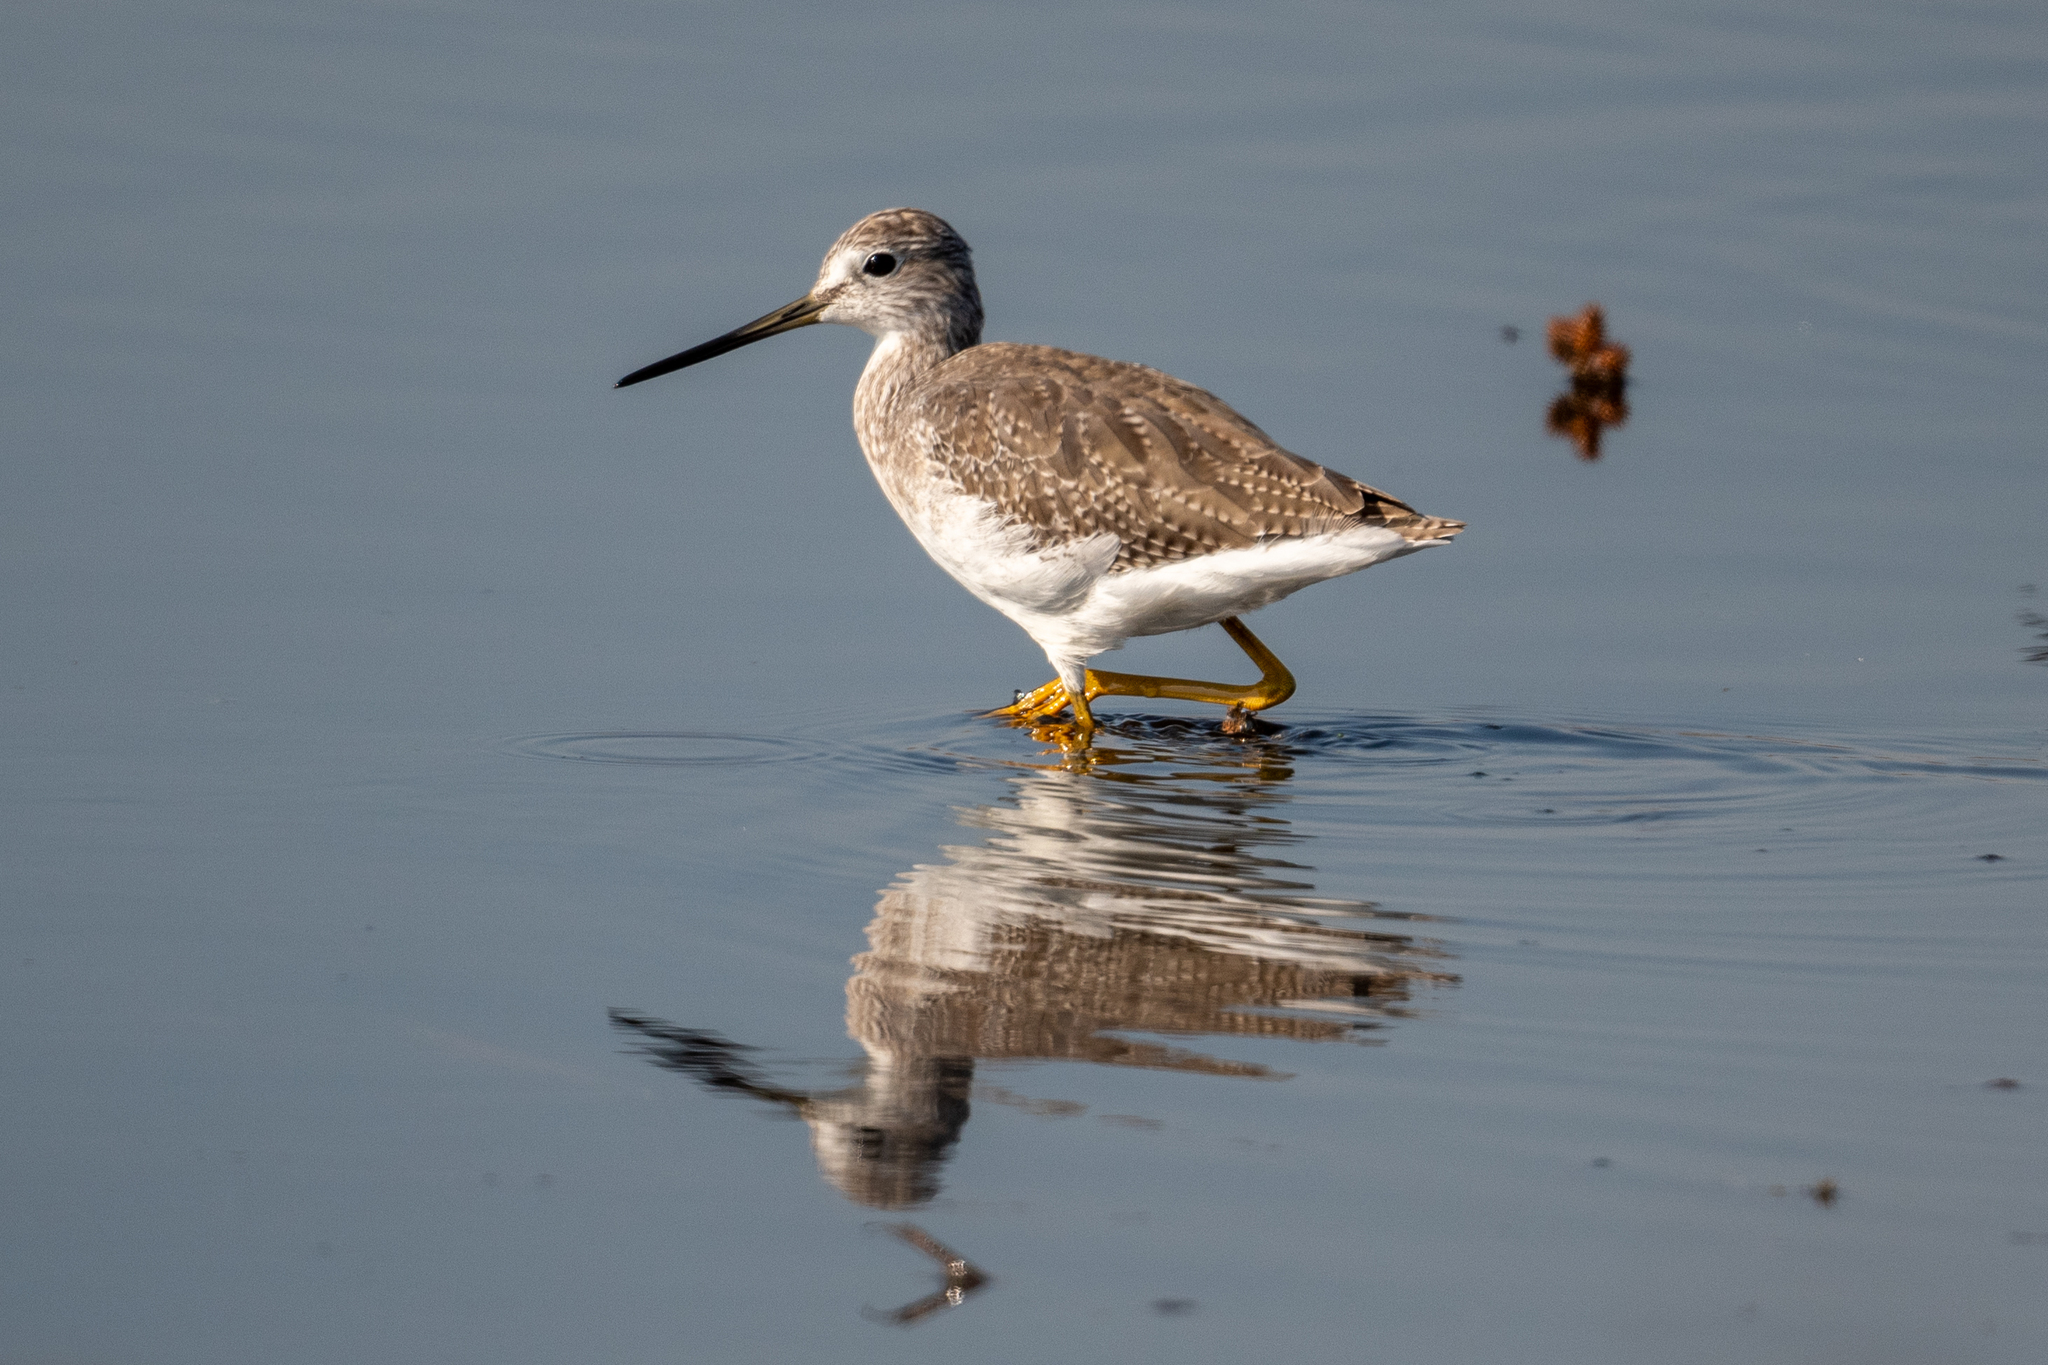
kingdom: Animalia
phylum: Chordata
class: Aves
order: Charadriiformes
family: Scolopacidae
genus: Tringa
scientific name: Tringa melanoleuca
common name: Greater yellowlegs
